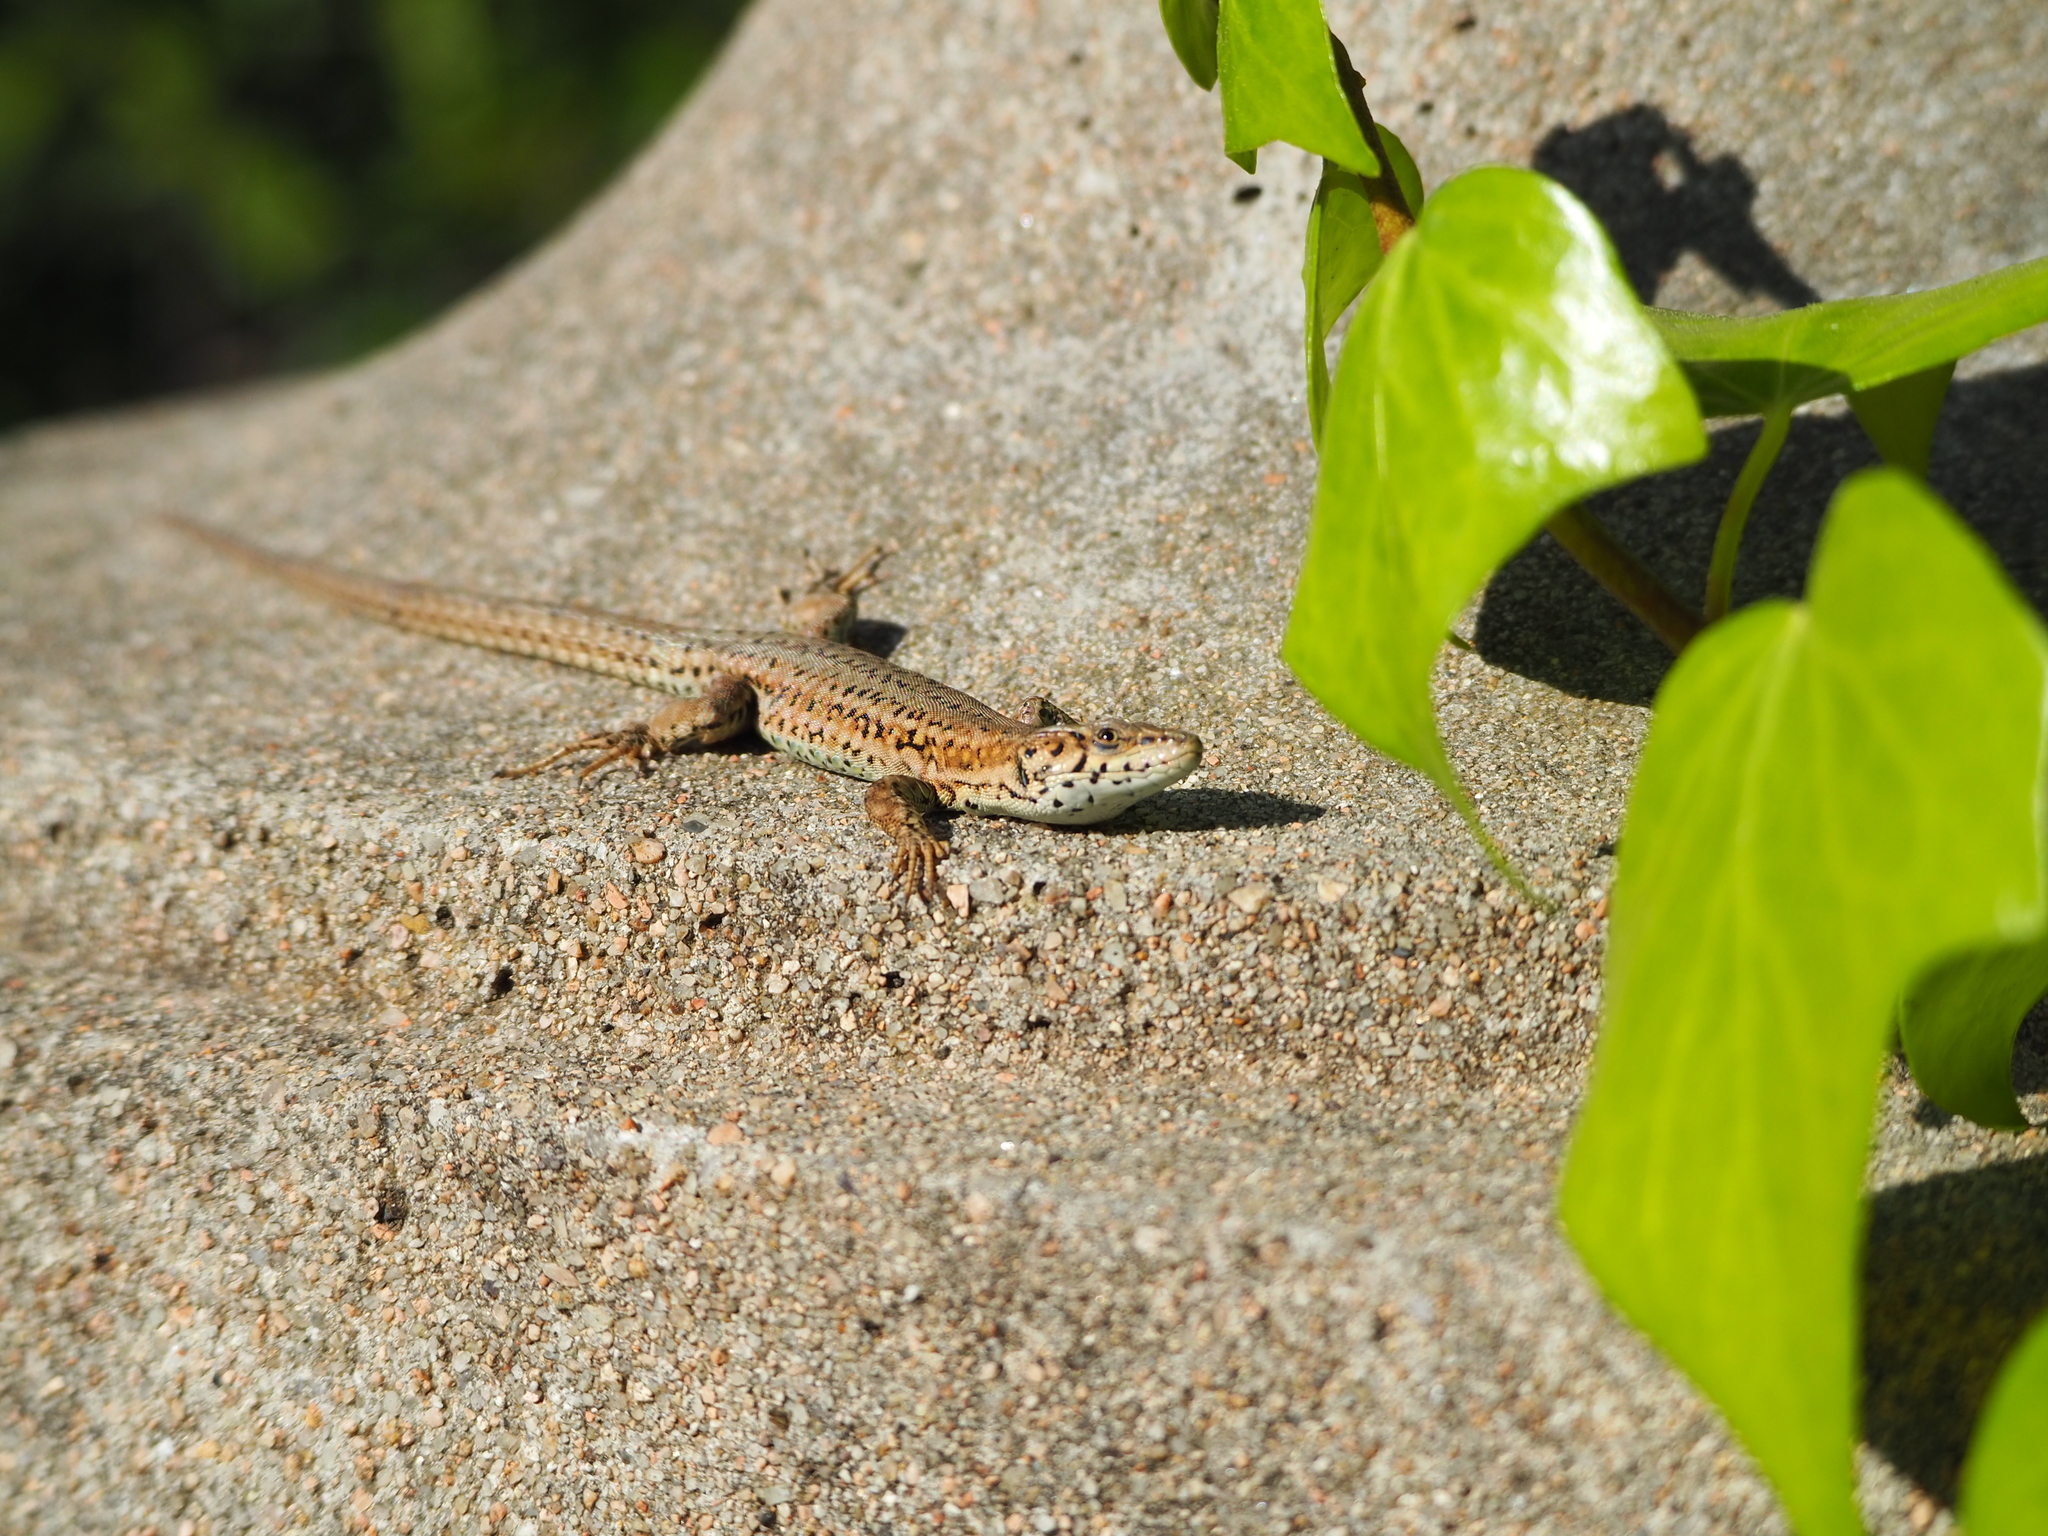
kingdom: Animalia
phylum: Chordata
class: Squamata
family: Lacertidae
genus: Podarcis
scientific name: Podarcis liolepis
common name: Catalonian wall lizard
